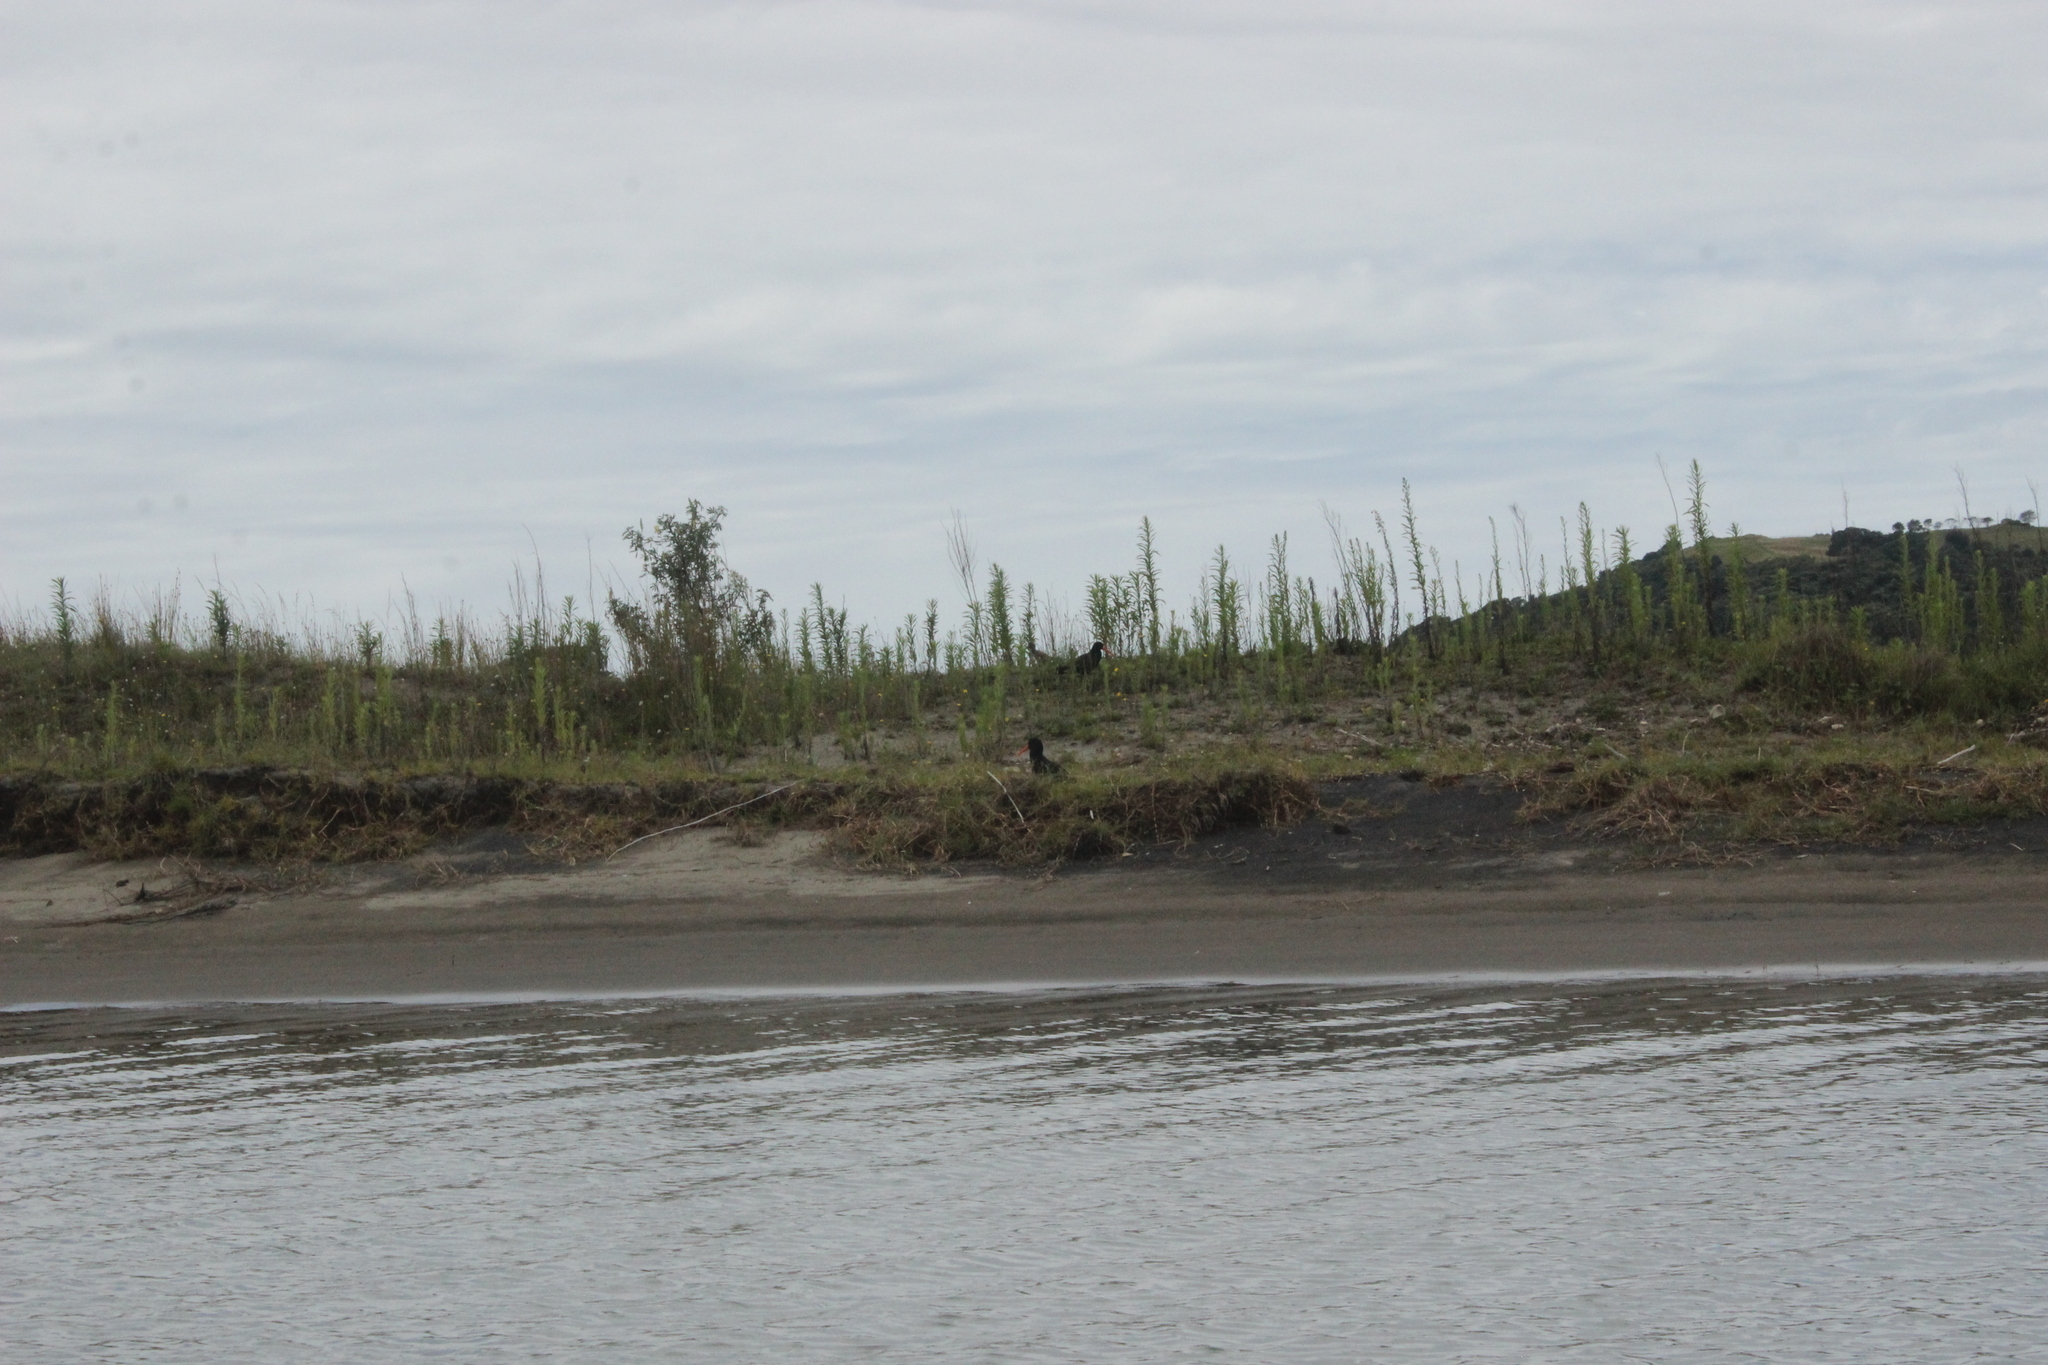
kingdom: Animalia
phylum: Chordata
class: Aves
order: Charadriiformes
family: Haematopodidae
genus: Haematopus
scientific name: Haematopus unicolor
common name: Variable oystercatcher
